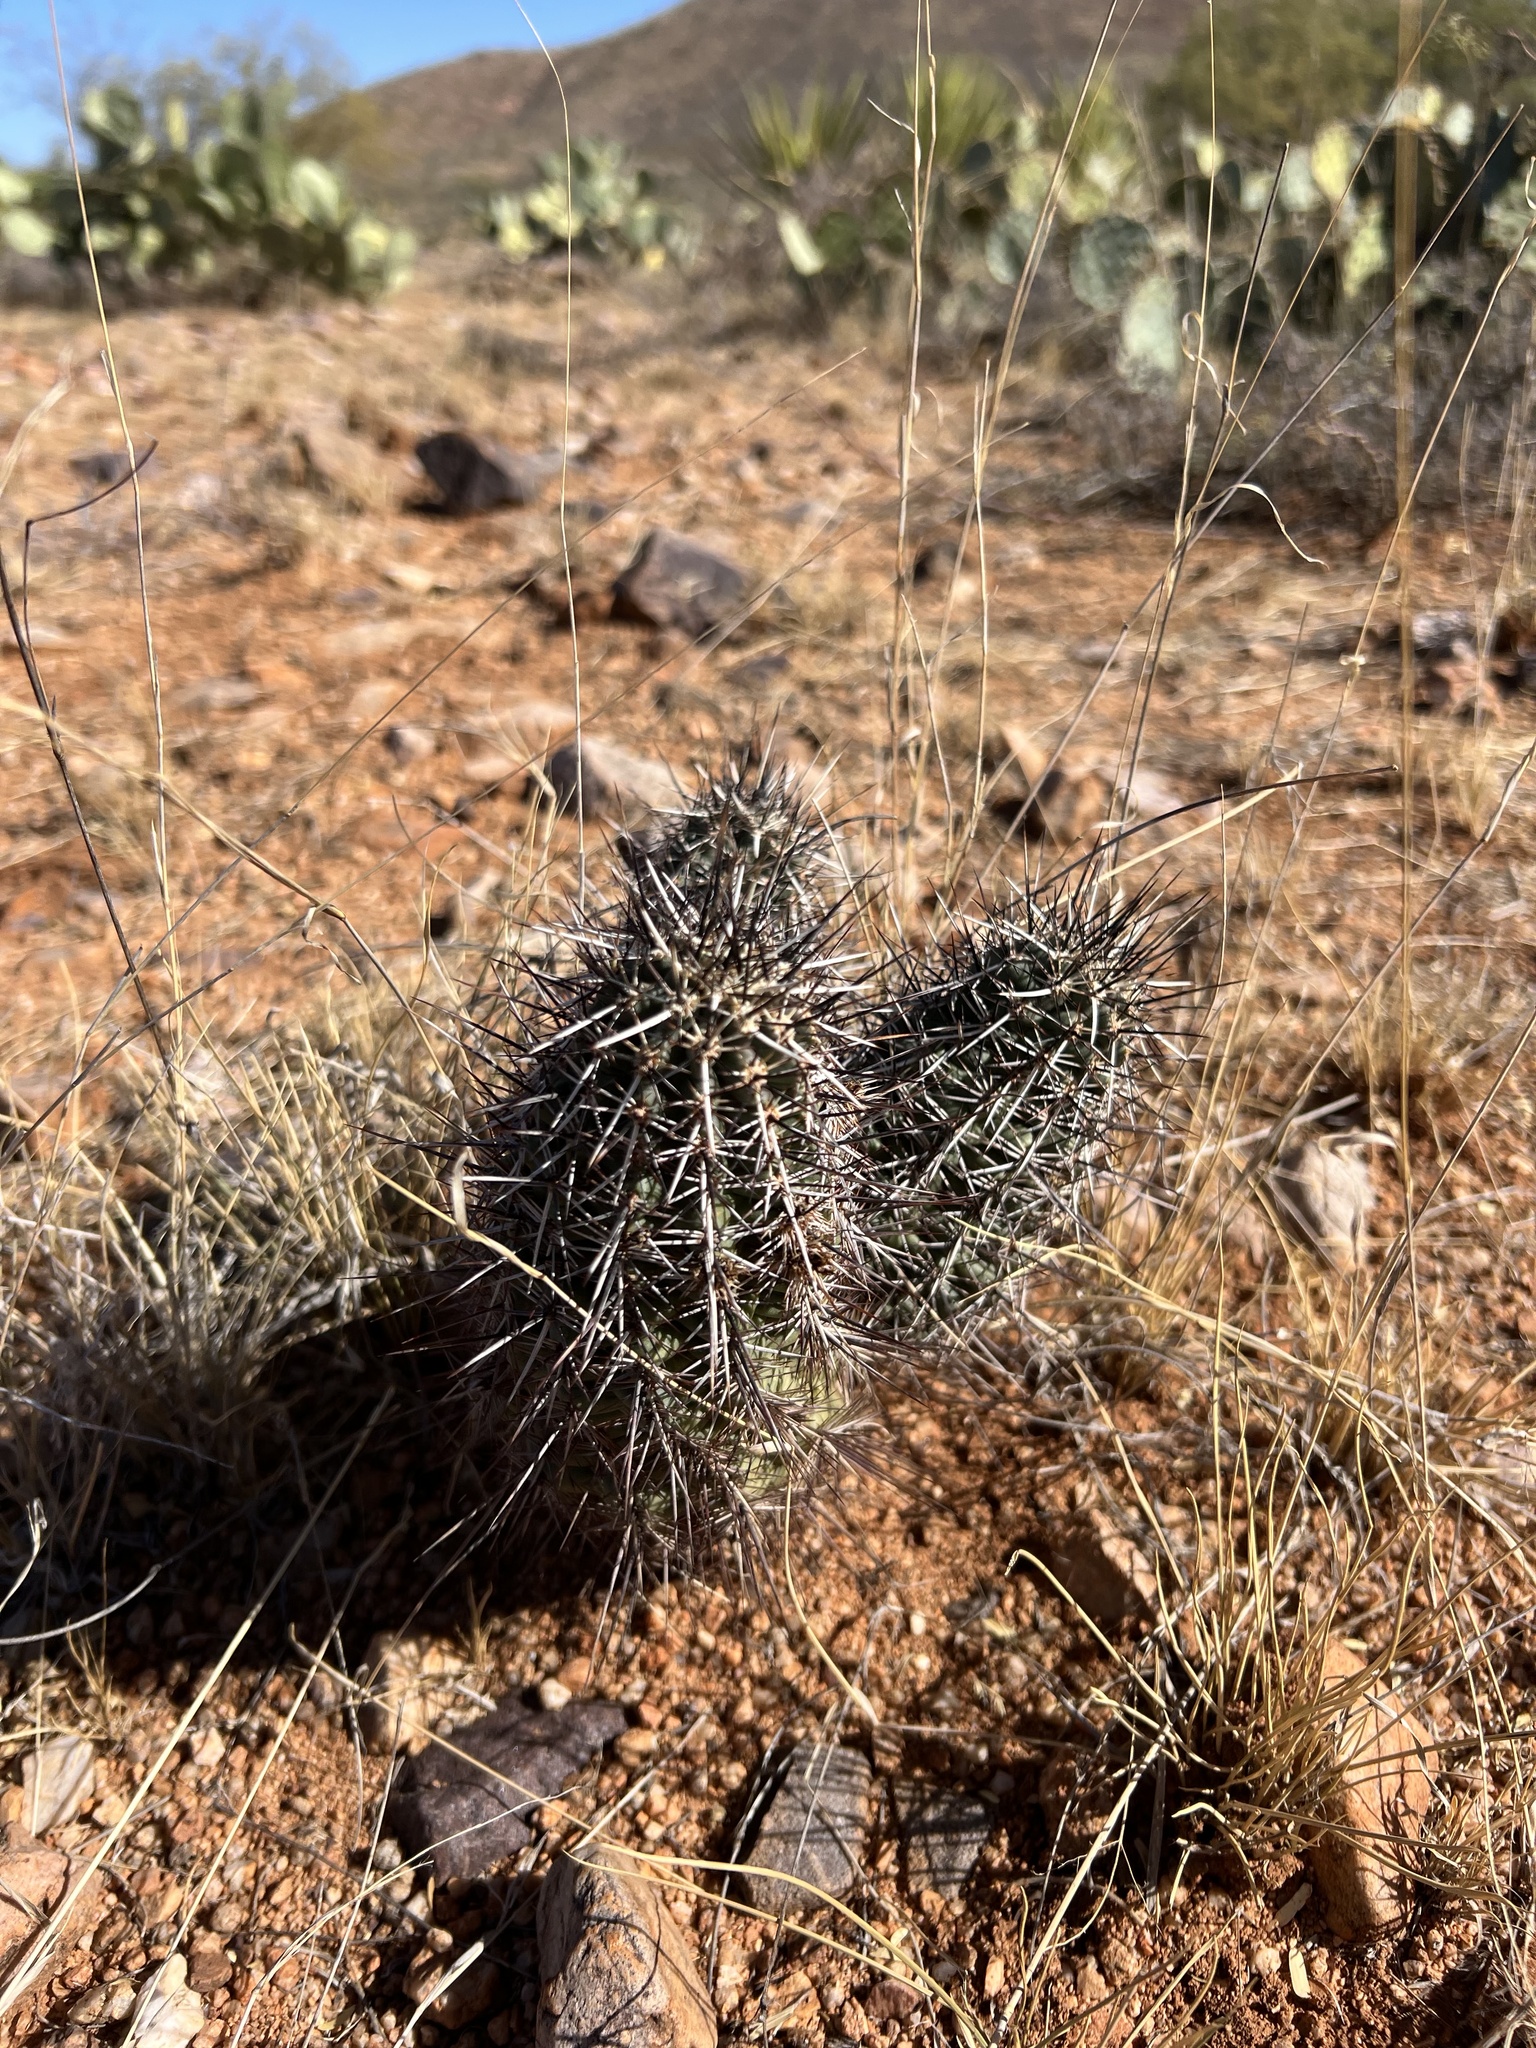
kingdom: Plantae
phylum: Tracheophyta
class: Magnoliopsida
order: Caryophyllales
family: Cactaceae
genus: Echinocereus
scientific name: Echinocereus fasciculatus
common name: Bundle hedgehog
